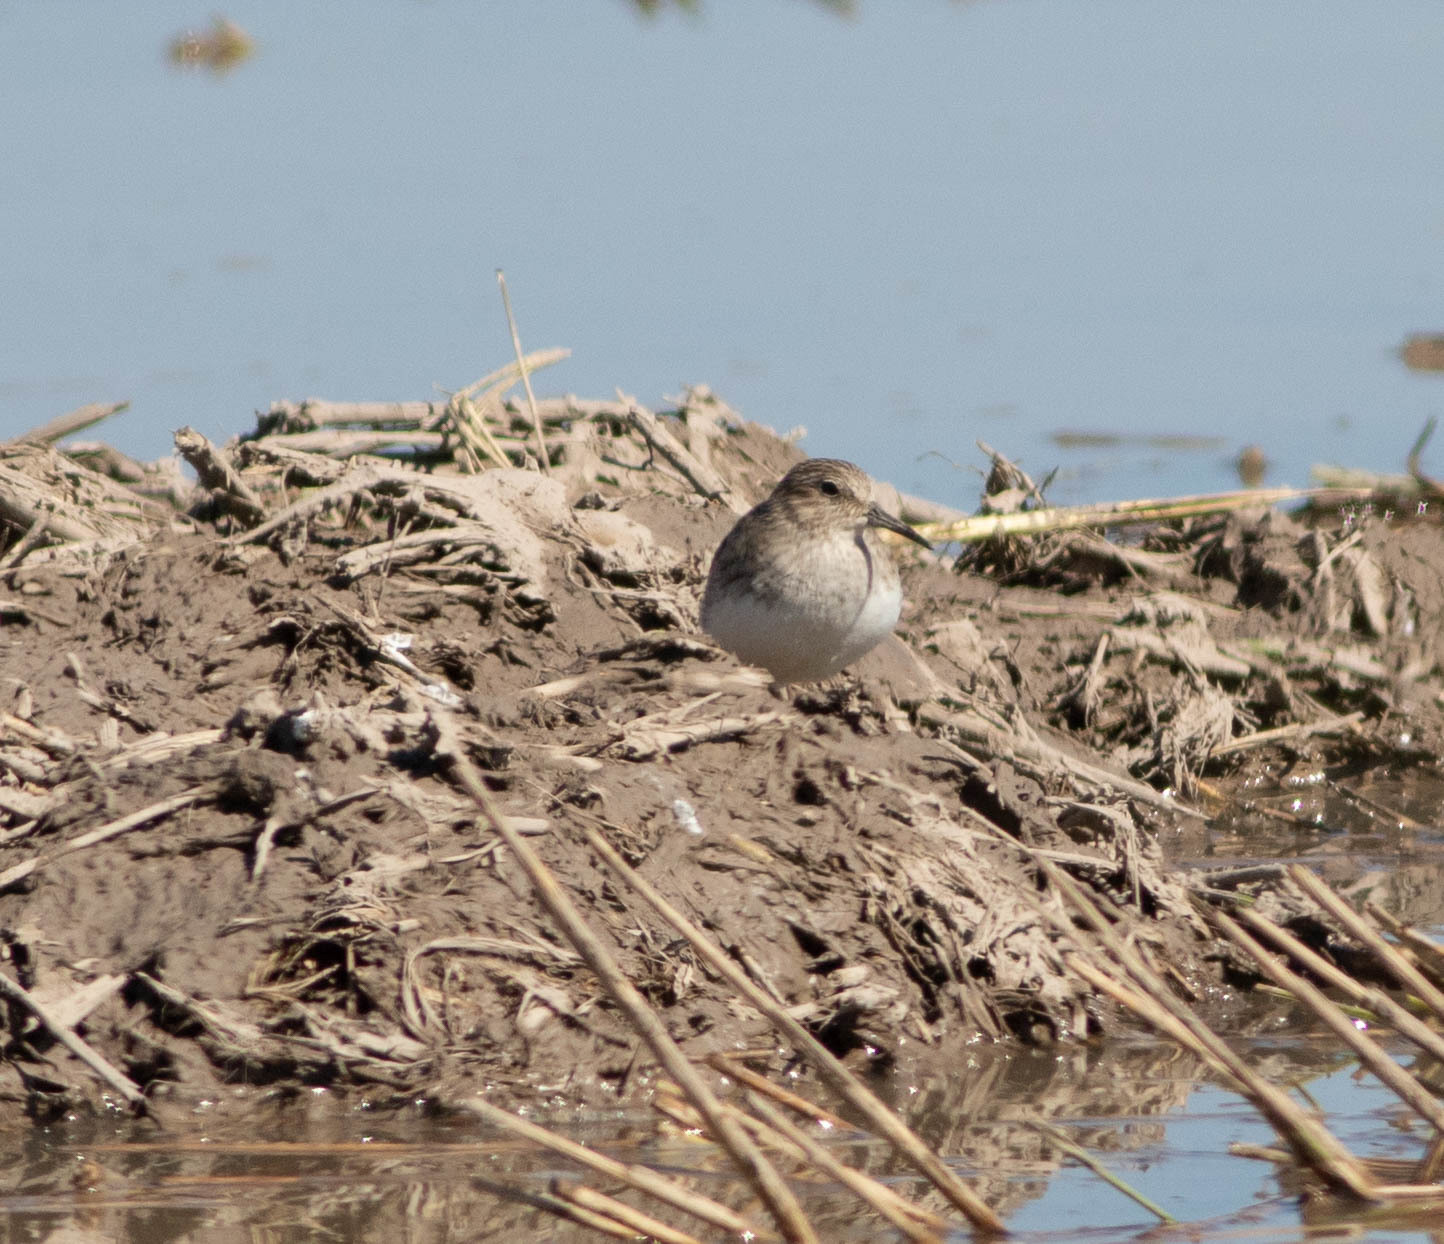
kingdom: Animalia
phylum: Chordata
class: Aves
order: Charadriiformes
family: Scolopacidae
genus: Calidris
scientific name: Calidris minutilla
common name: Least sandpiper
